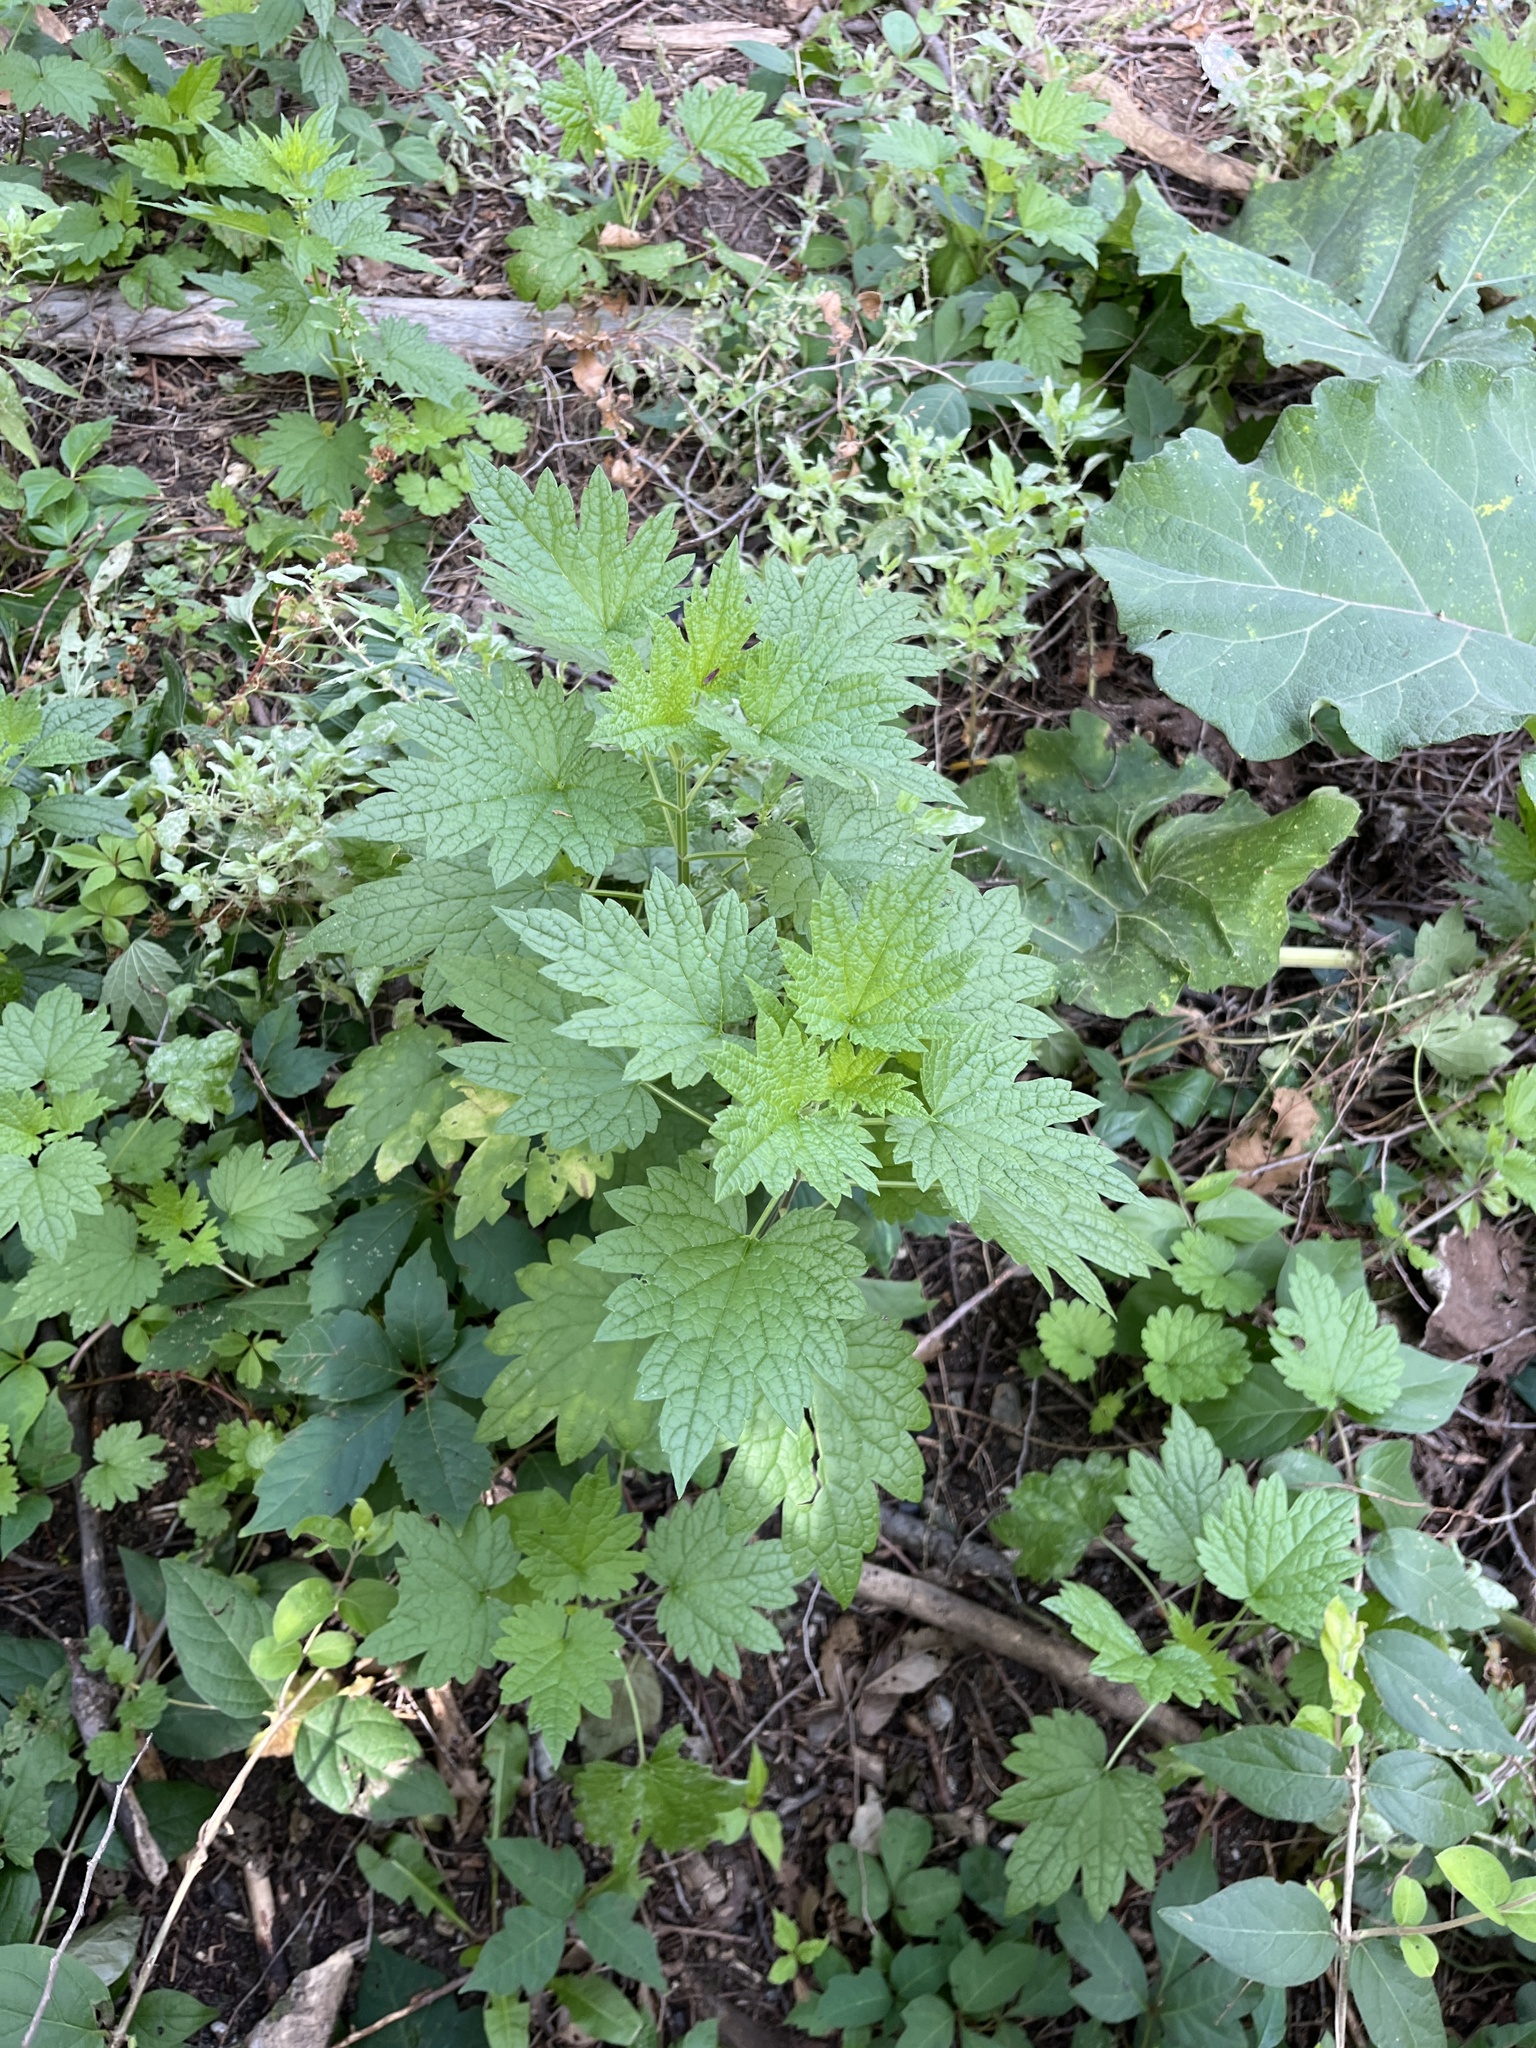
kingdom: Plantae
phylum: Tracheophyta
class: Magnoliopsida
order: Lamiales
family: Lamiaceae
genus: Leonurus
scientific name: Leonurus cardiaca
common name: Motherwort
